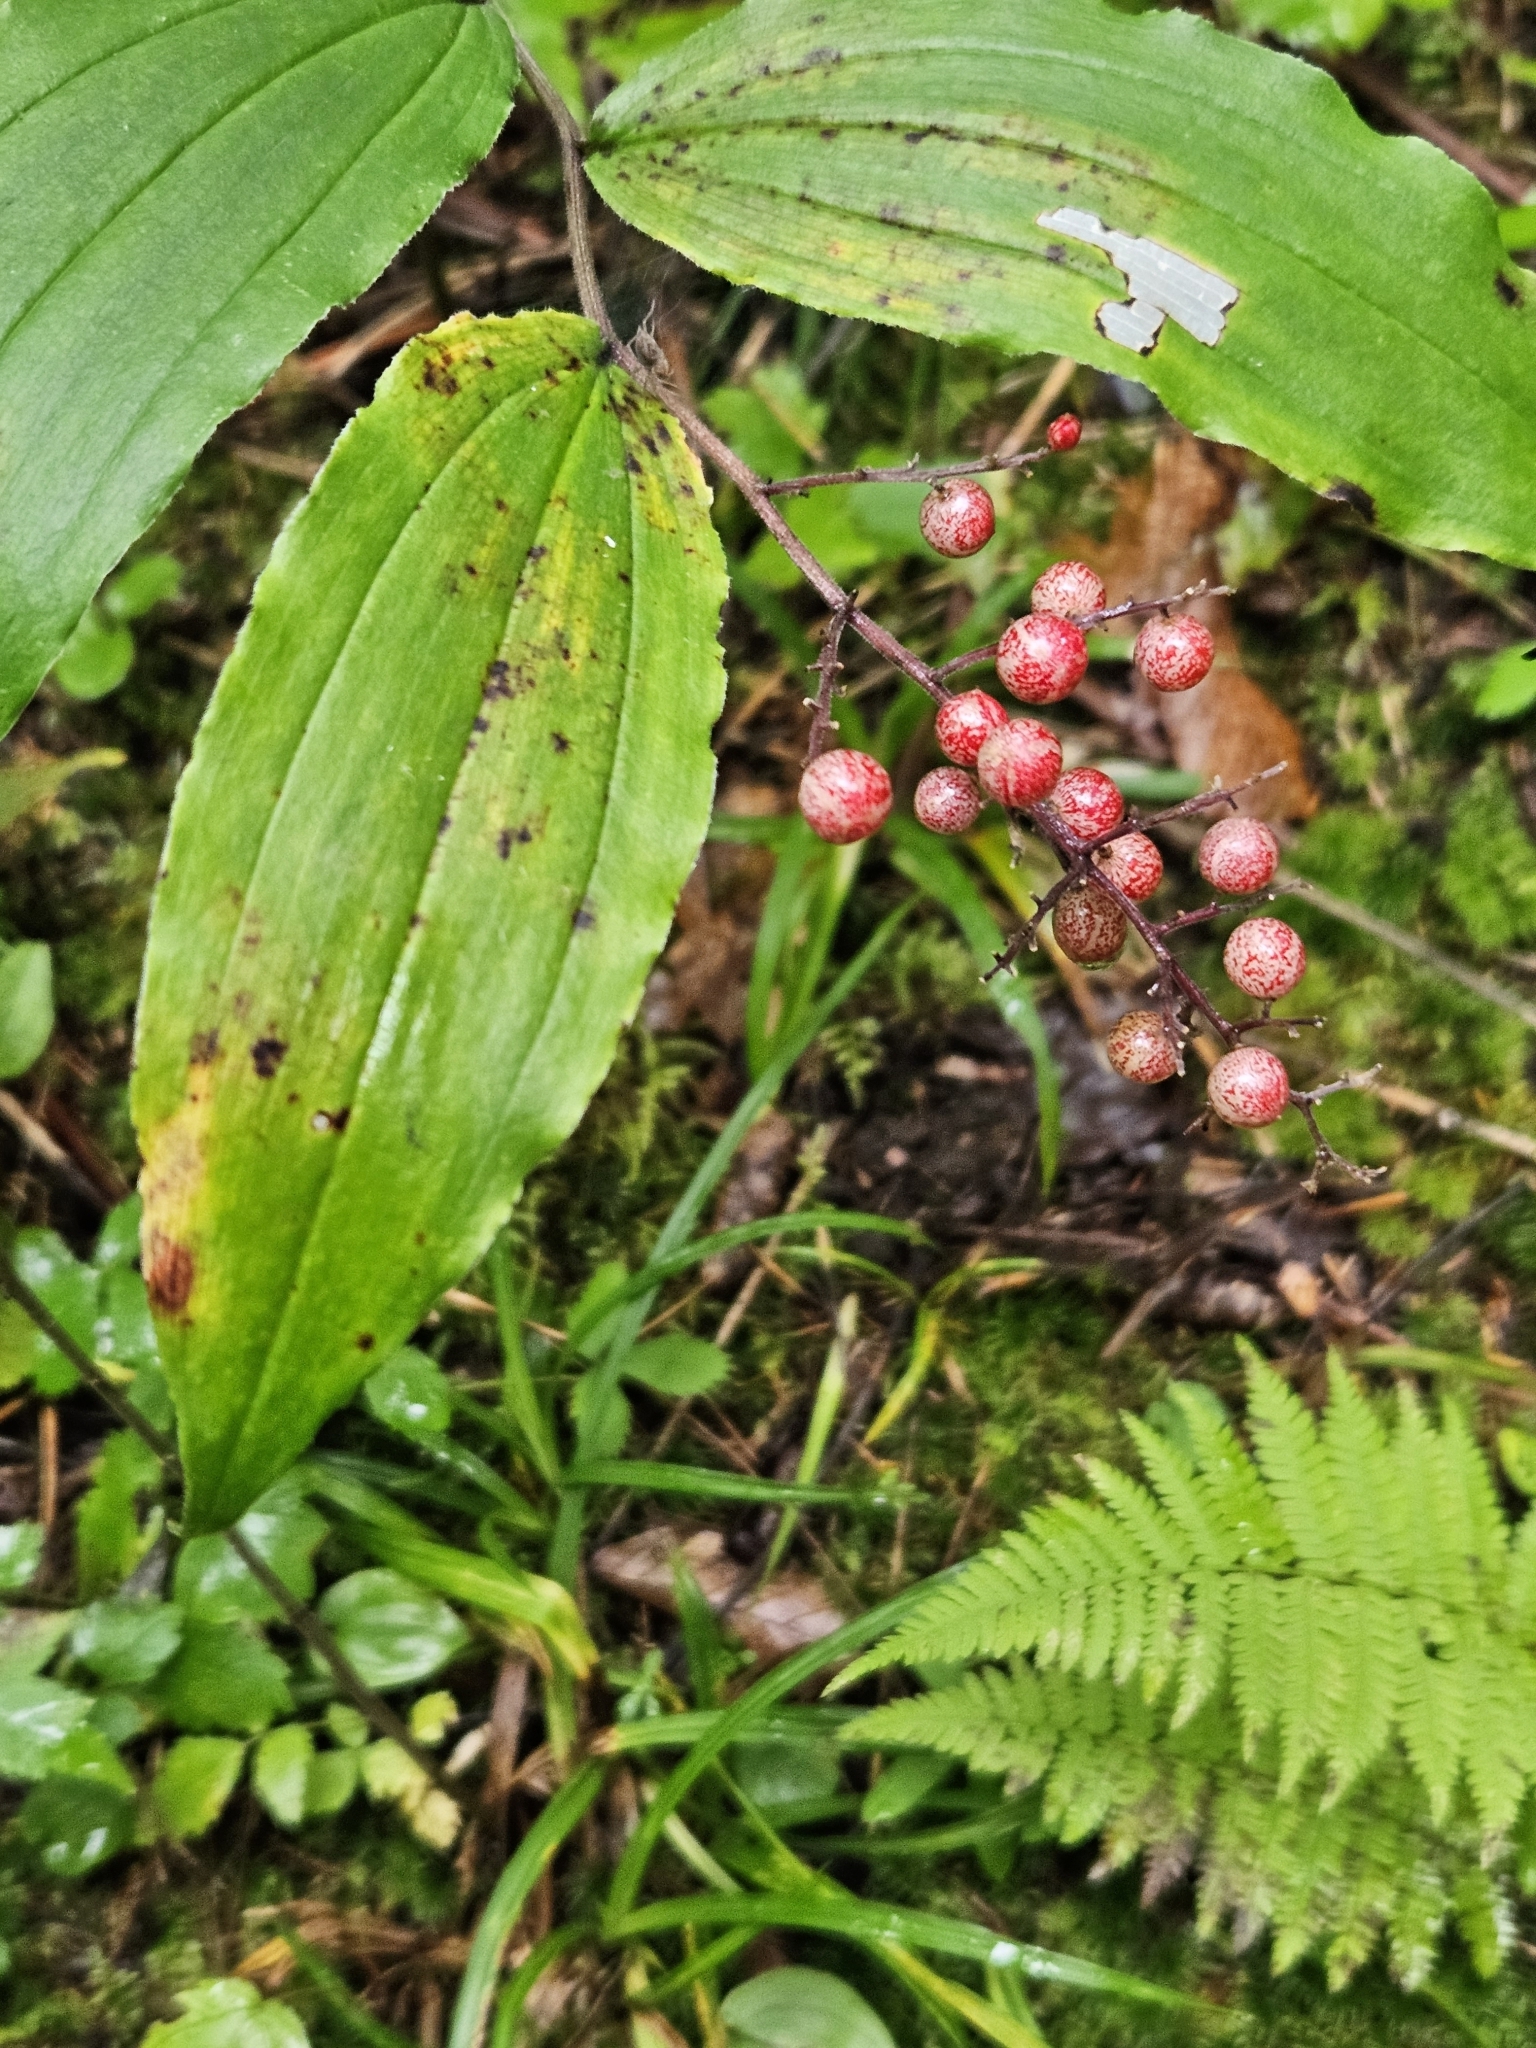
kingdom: Plantae
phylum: Tracheophyta
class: Liliopsida
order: Asparagales
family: Asparagaceae
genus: Maianthemum
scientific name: Maianthemum racemosum
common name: False spikenard
